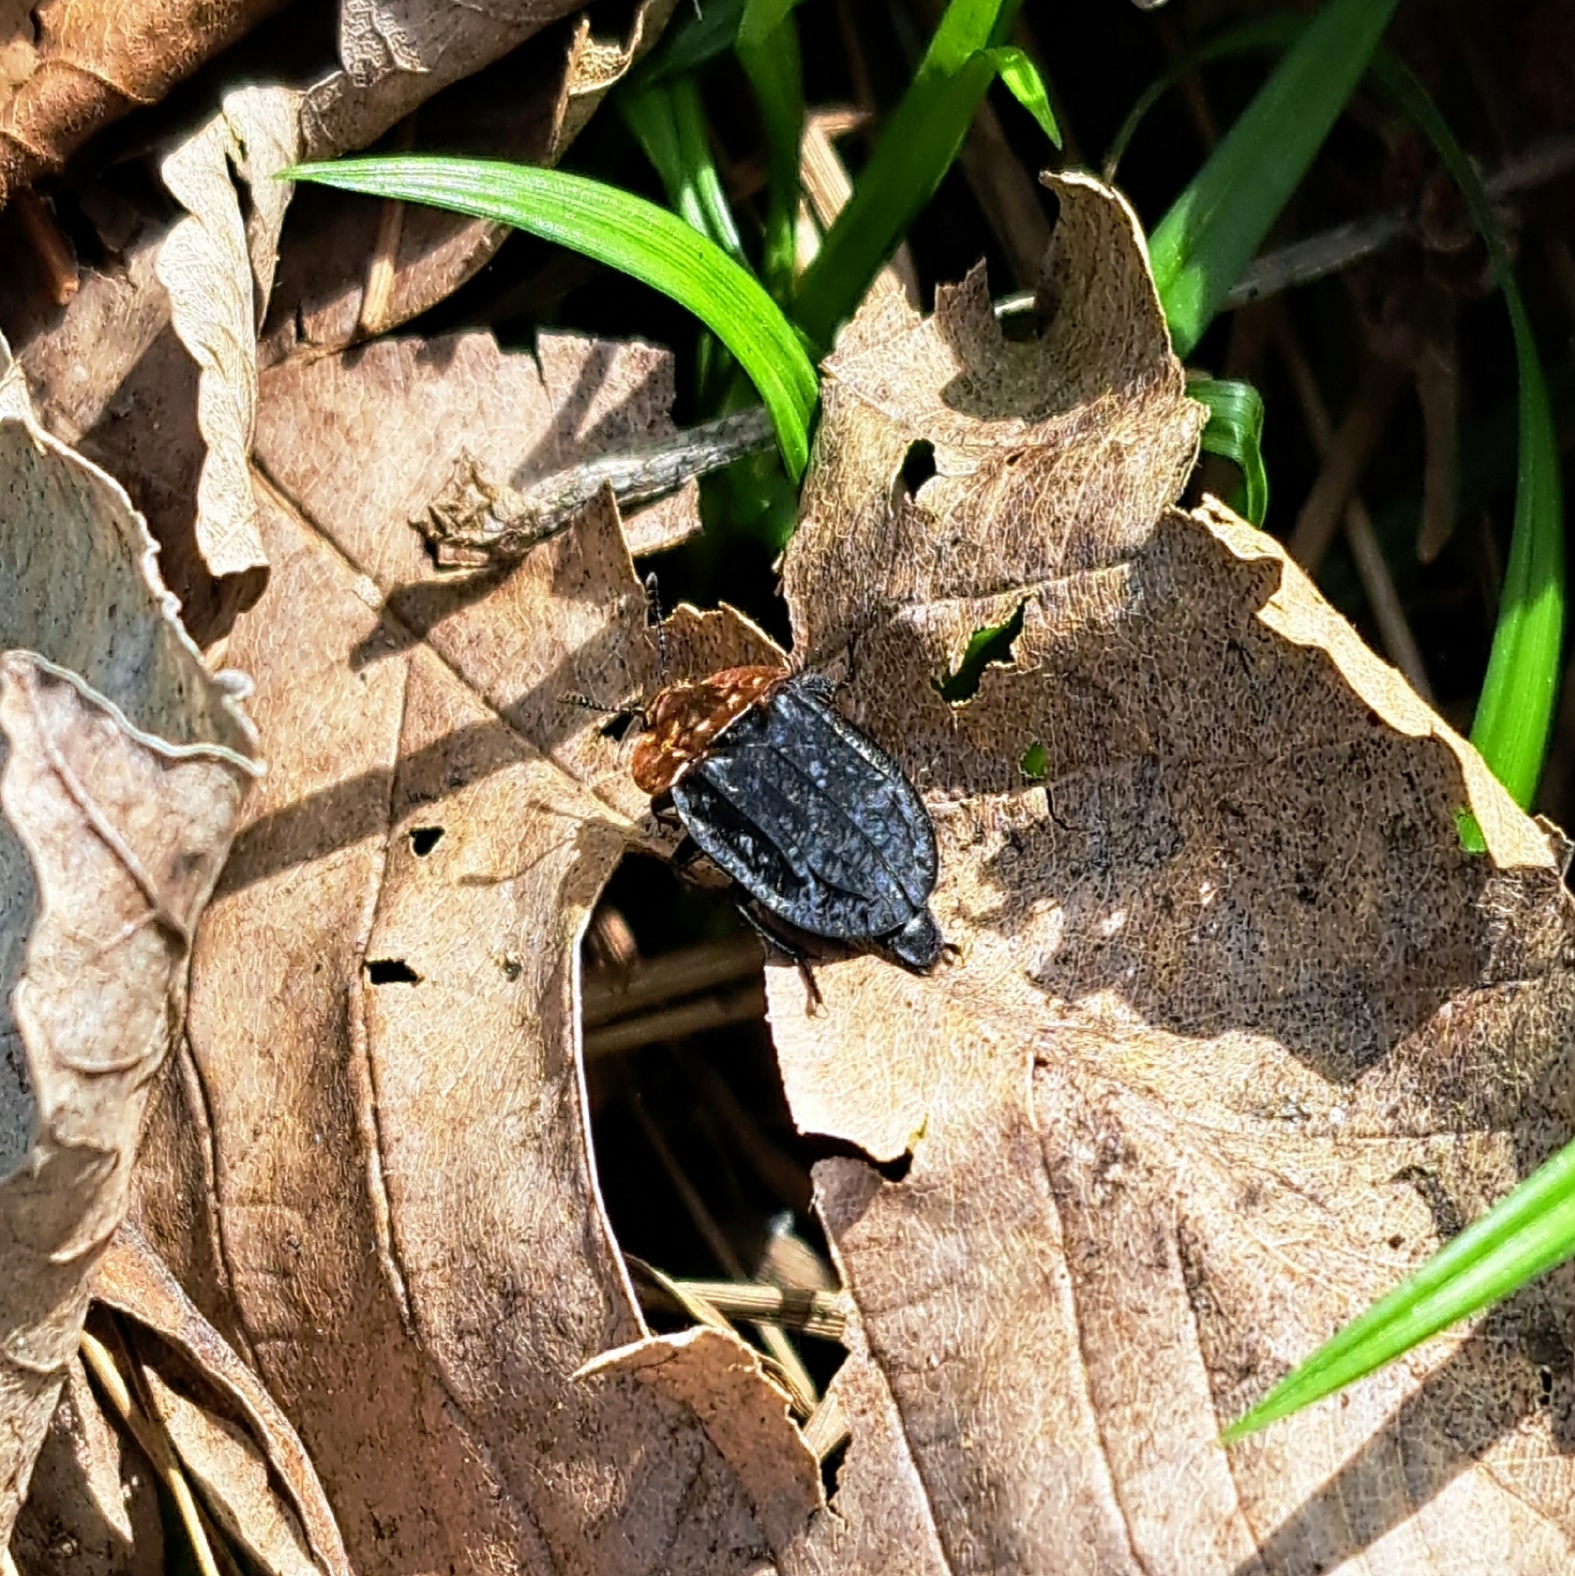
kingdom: Animalia
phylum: Arthropoda
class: Insecta
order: Coleoptera
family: Staphylinidae
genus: Oiceoptoma
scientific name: Oiceoptoma thoracicum
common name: Red-breasted carrion beetle
